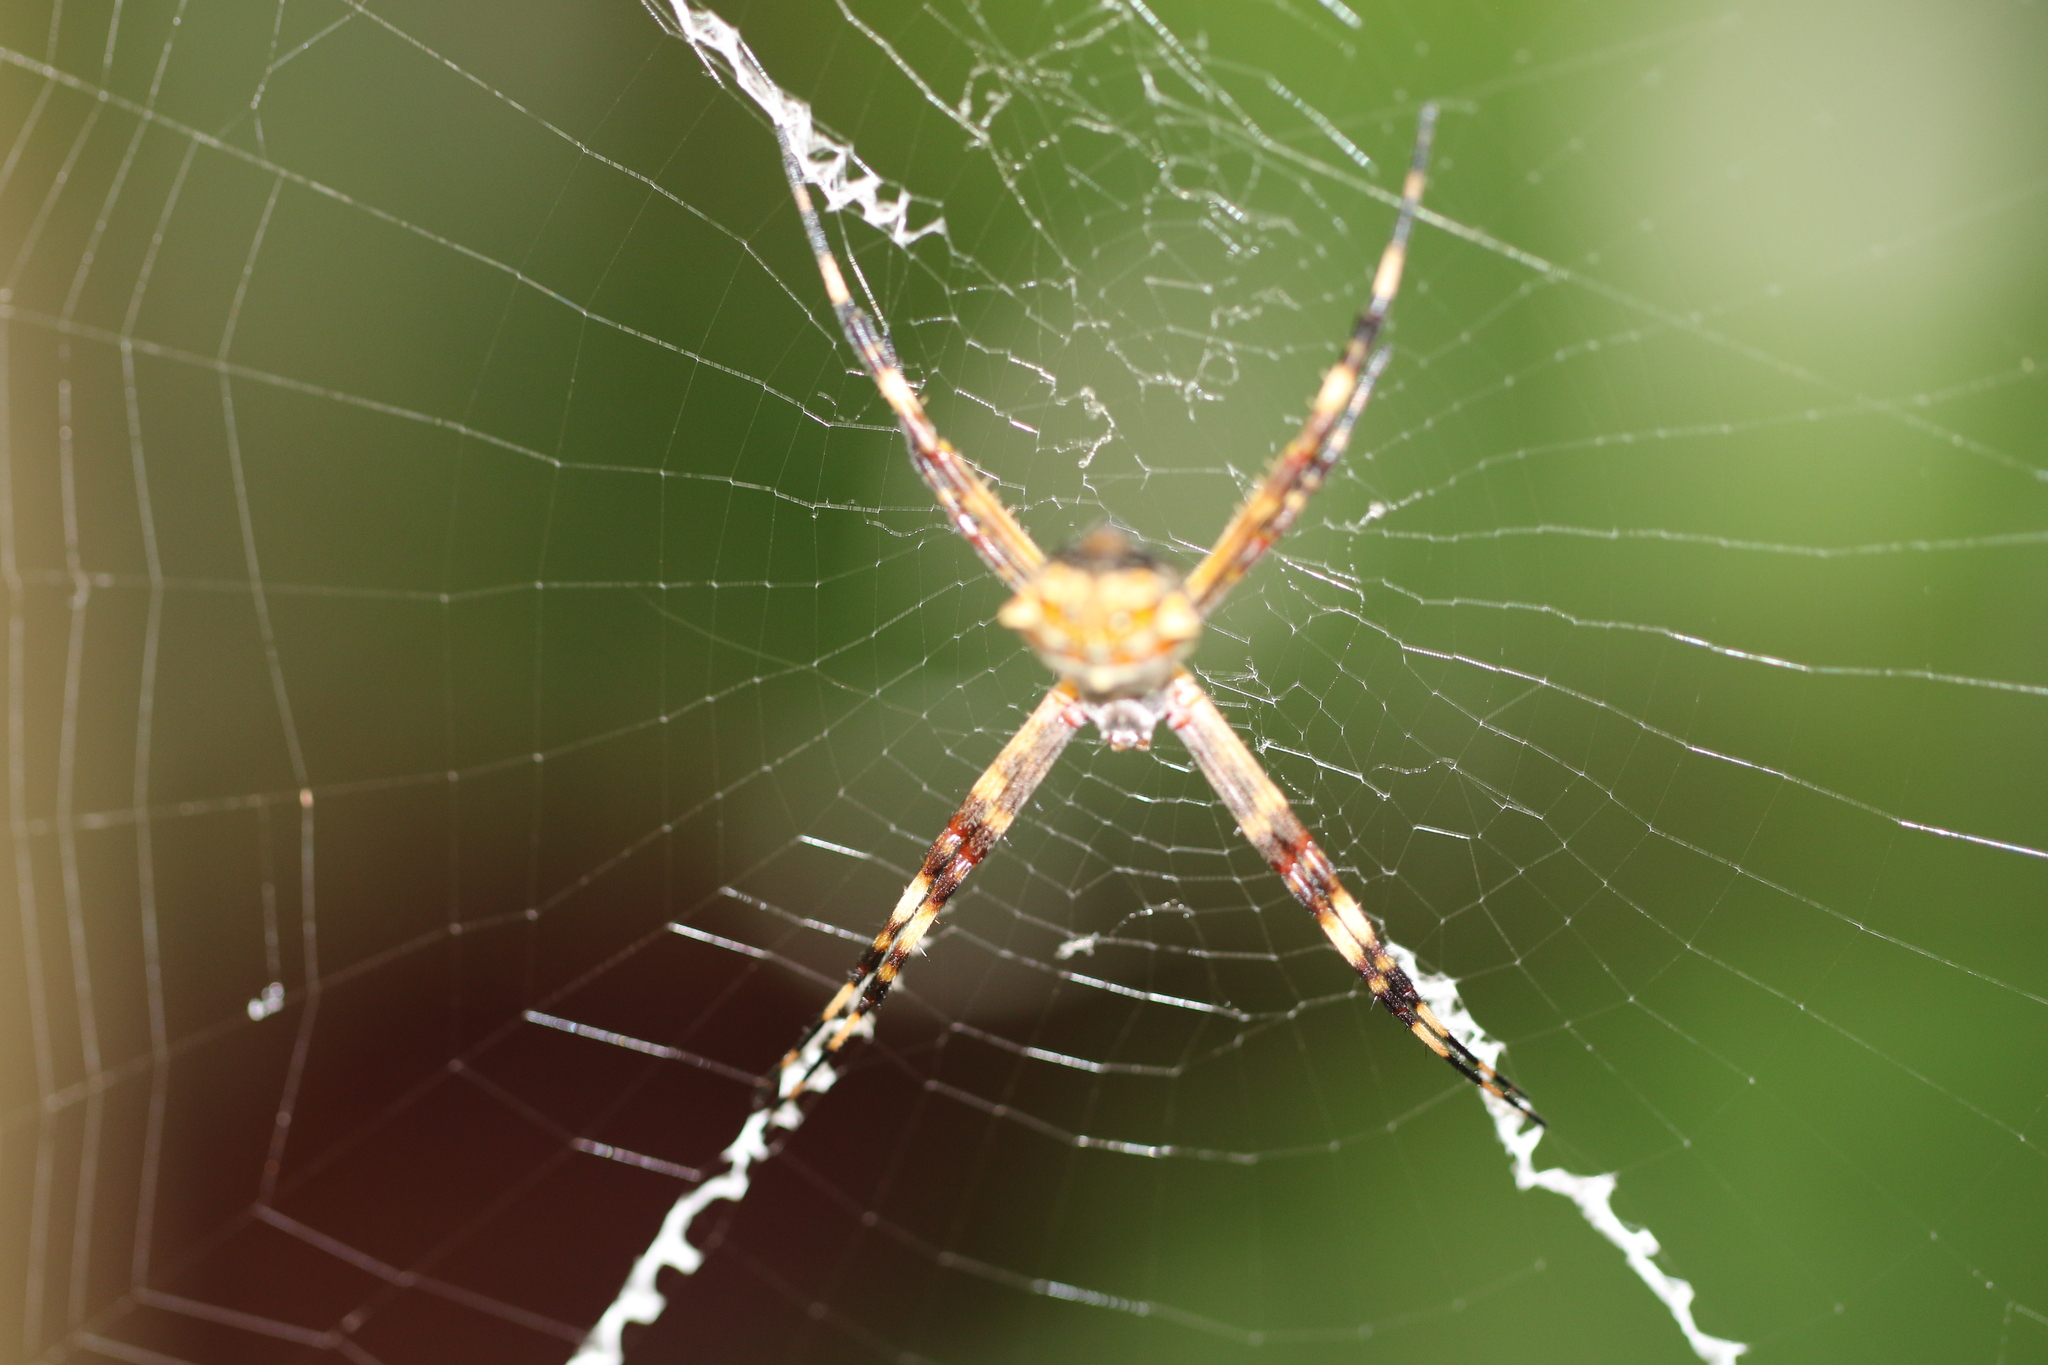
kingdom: Animalia
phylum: Arthropoda
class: Arachnida
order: Araneae
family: Araneidae
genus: Argiope
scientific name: Argiope argentata
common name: Orb weavers
